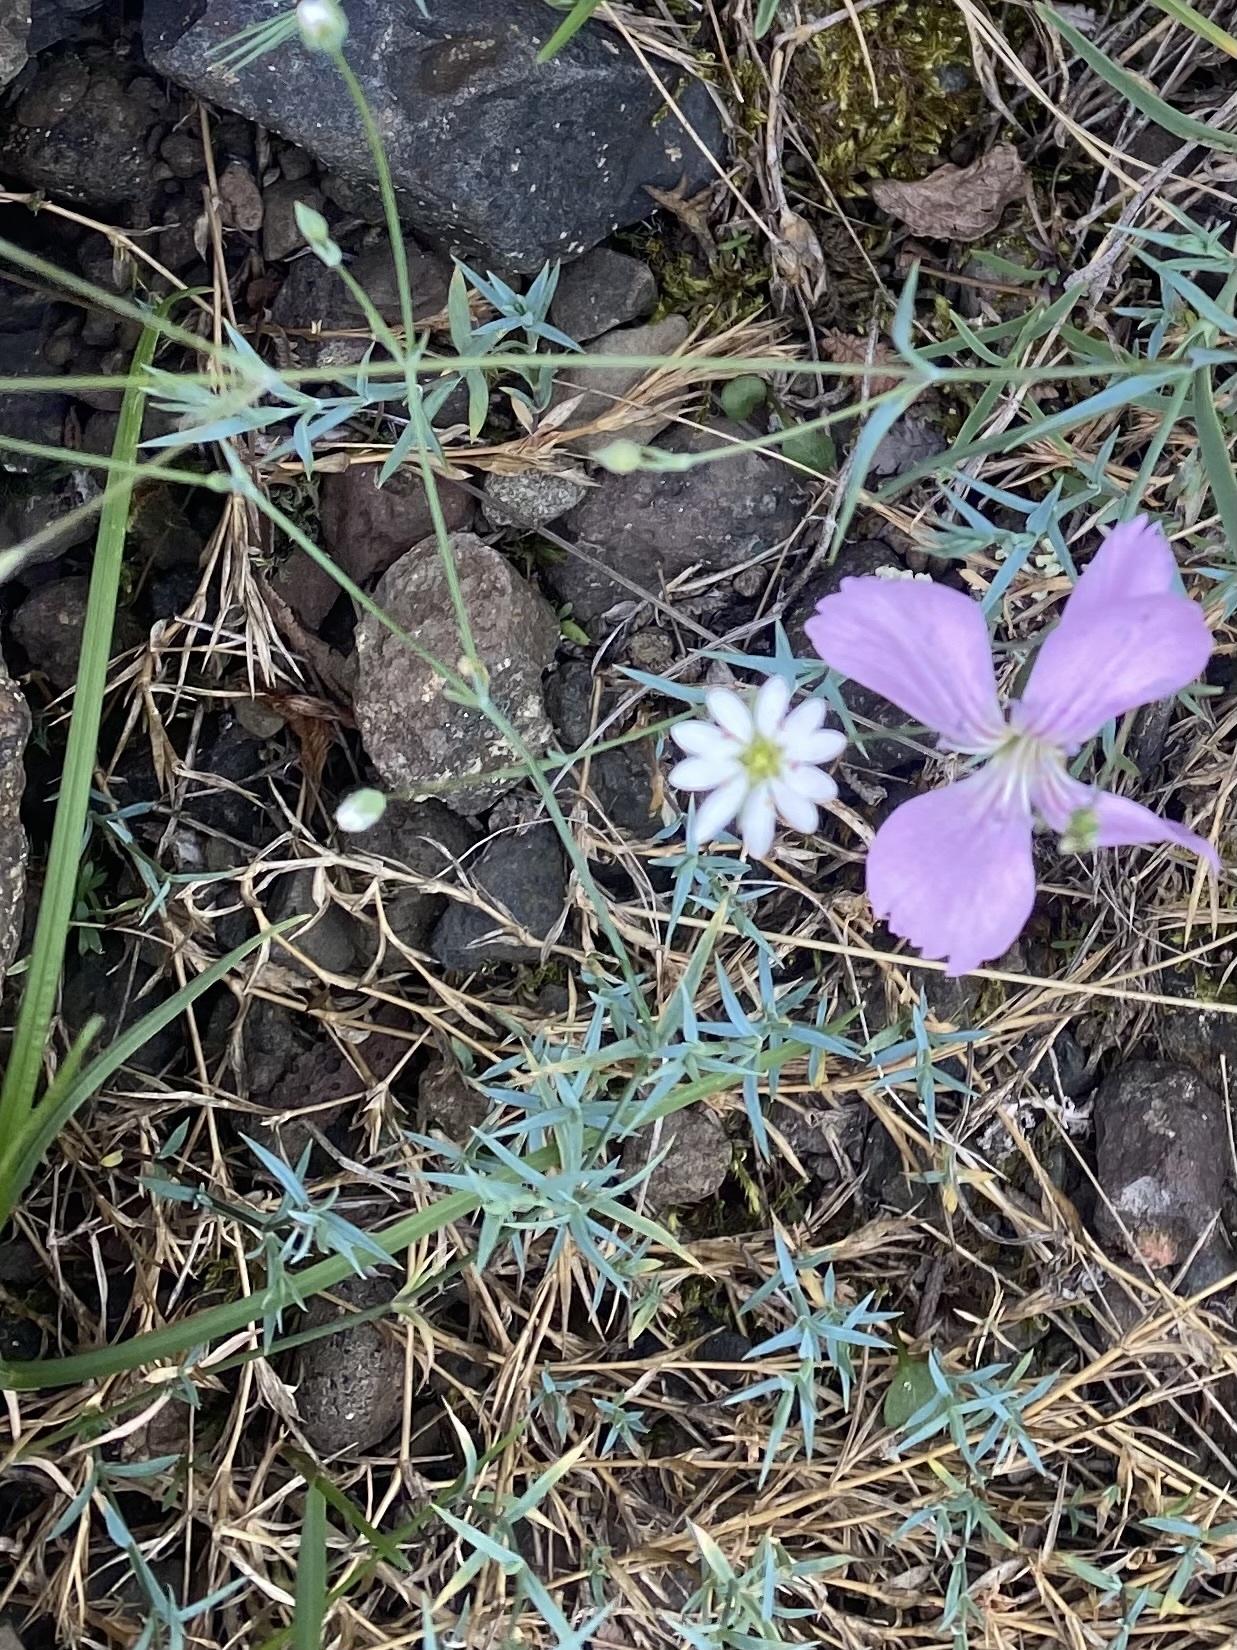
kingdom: Plantae
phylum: Tracheophyta
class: Magnoliopsida
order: Caryophyllales
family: Caryophyllaceae
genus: Stellaria
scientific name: Stellaria fischeriana
